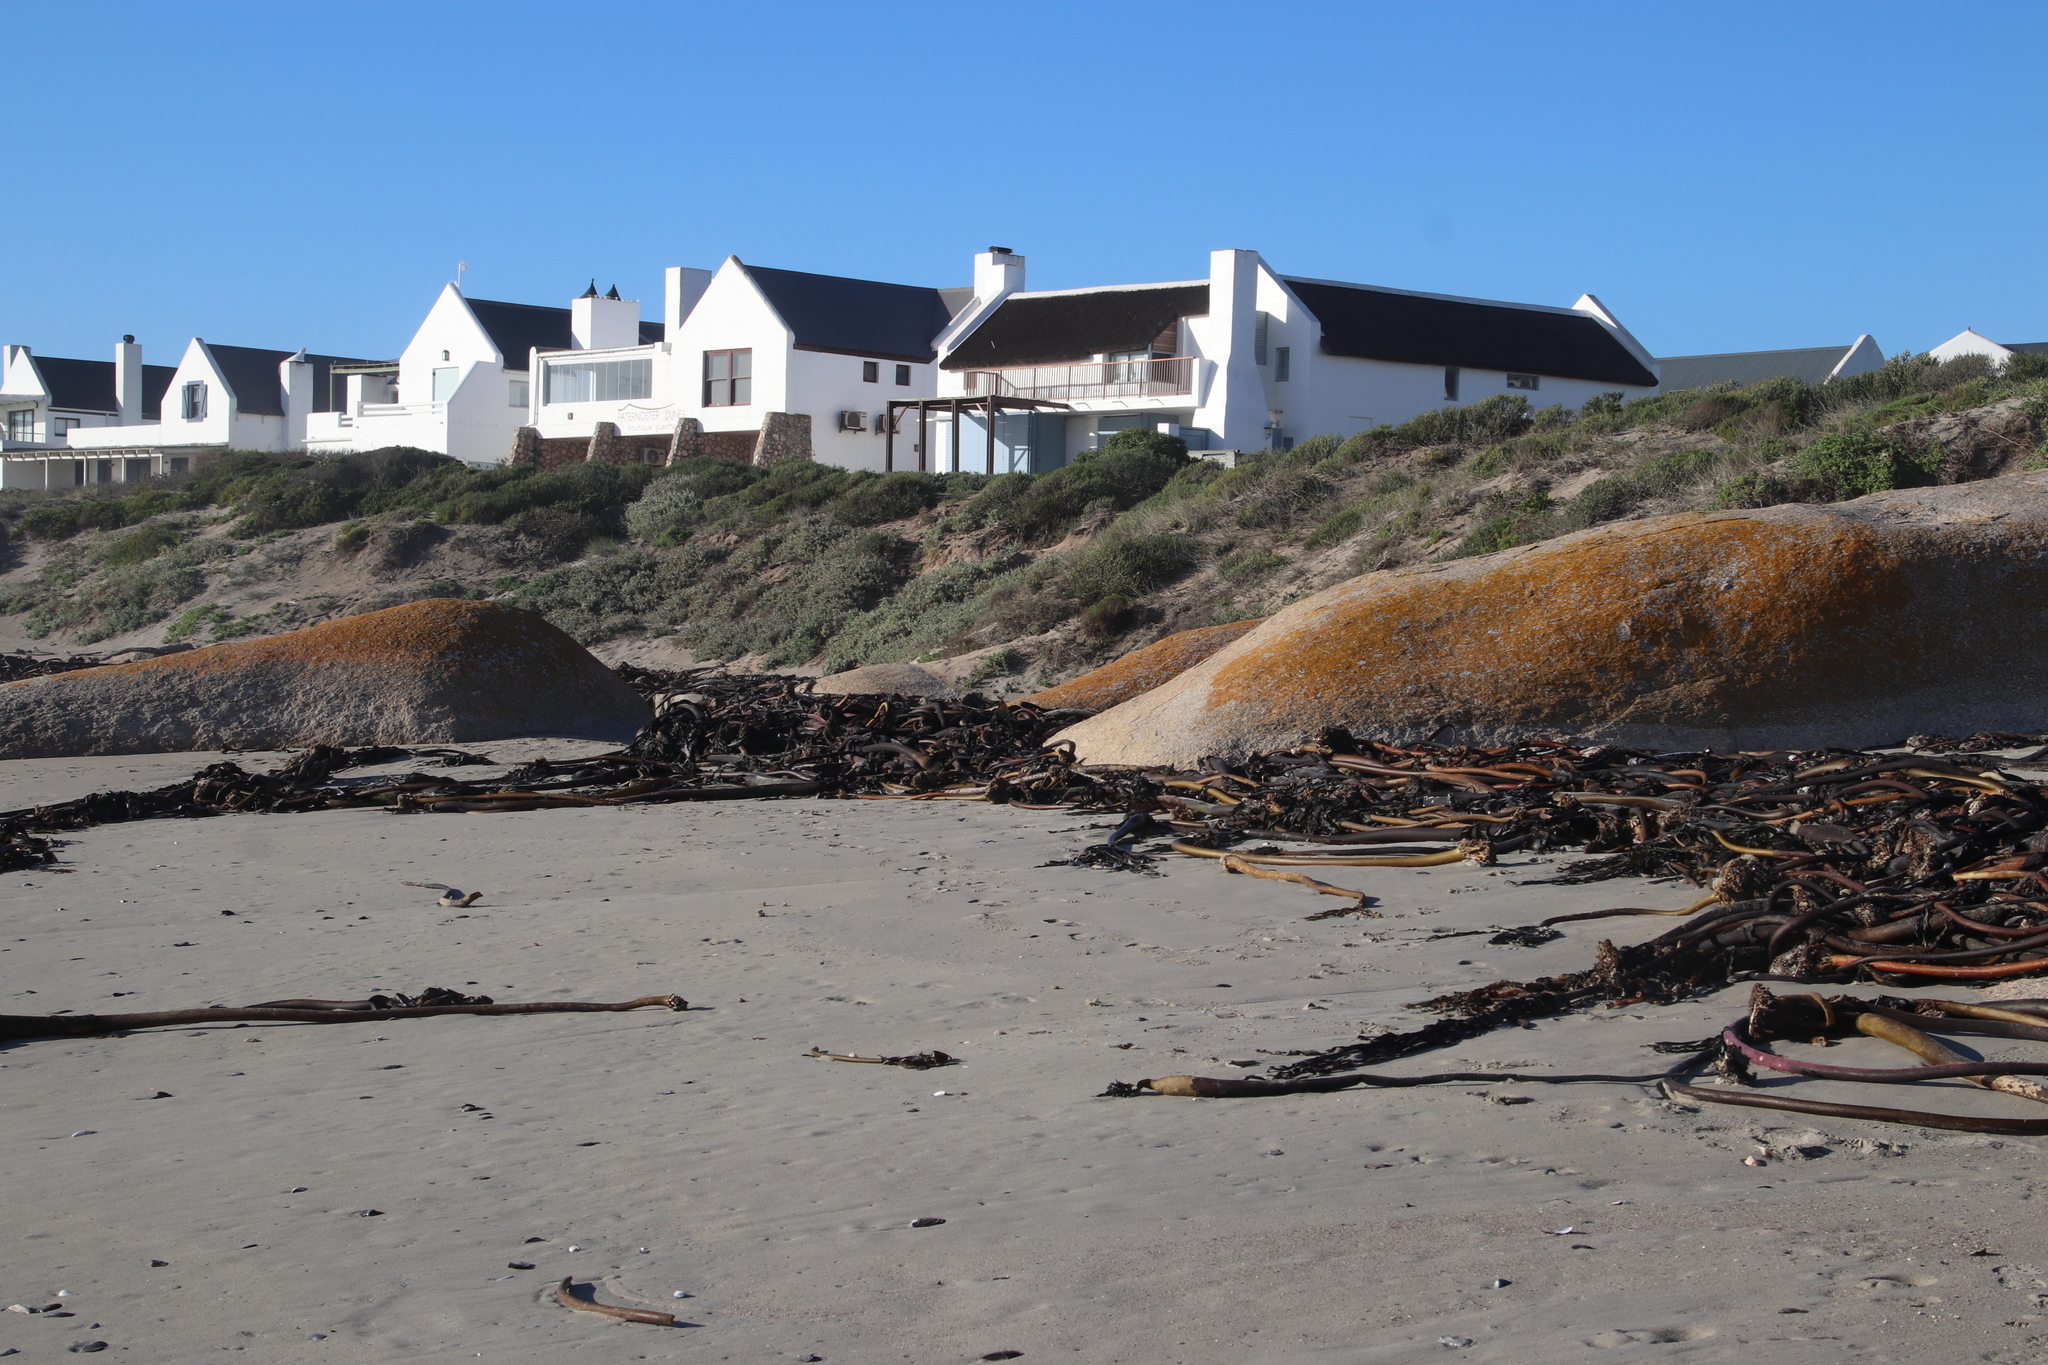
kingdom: Chromista
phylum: Ochrophyta
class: Phaeophyceae
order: Laminariales
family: Lessoniaceae
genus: Ecklonia
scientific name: Ecklonia
